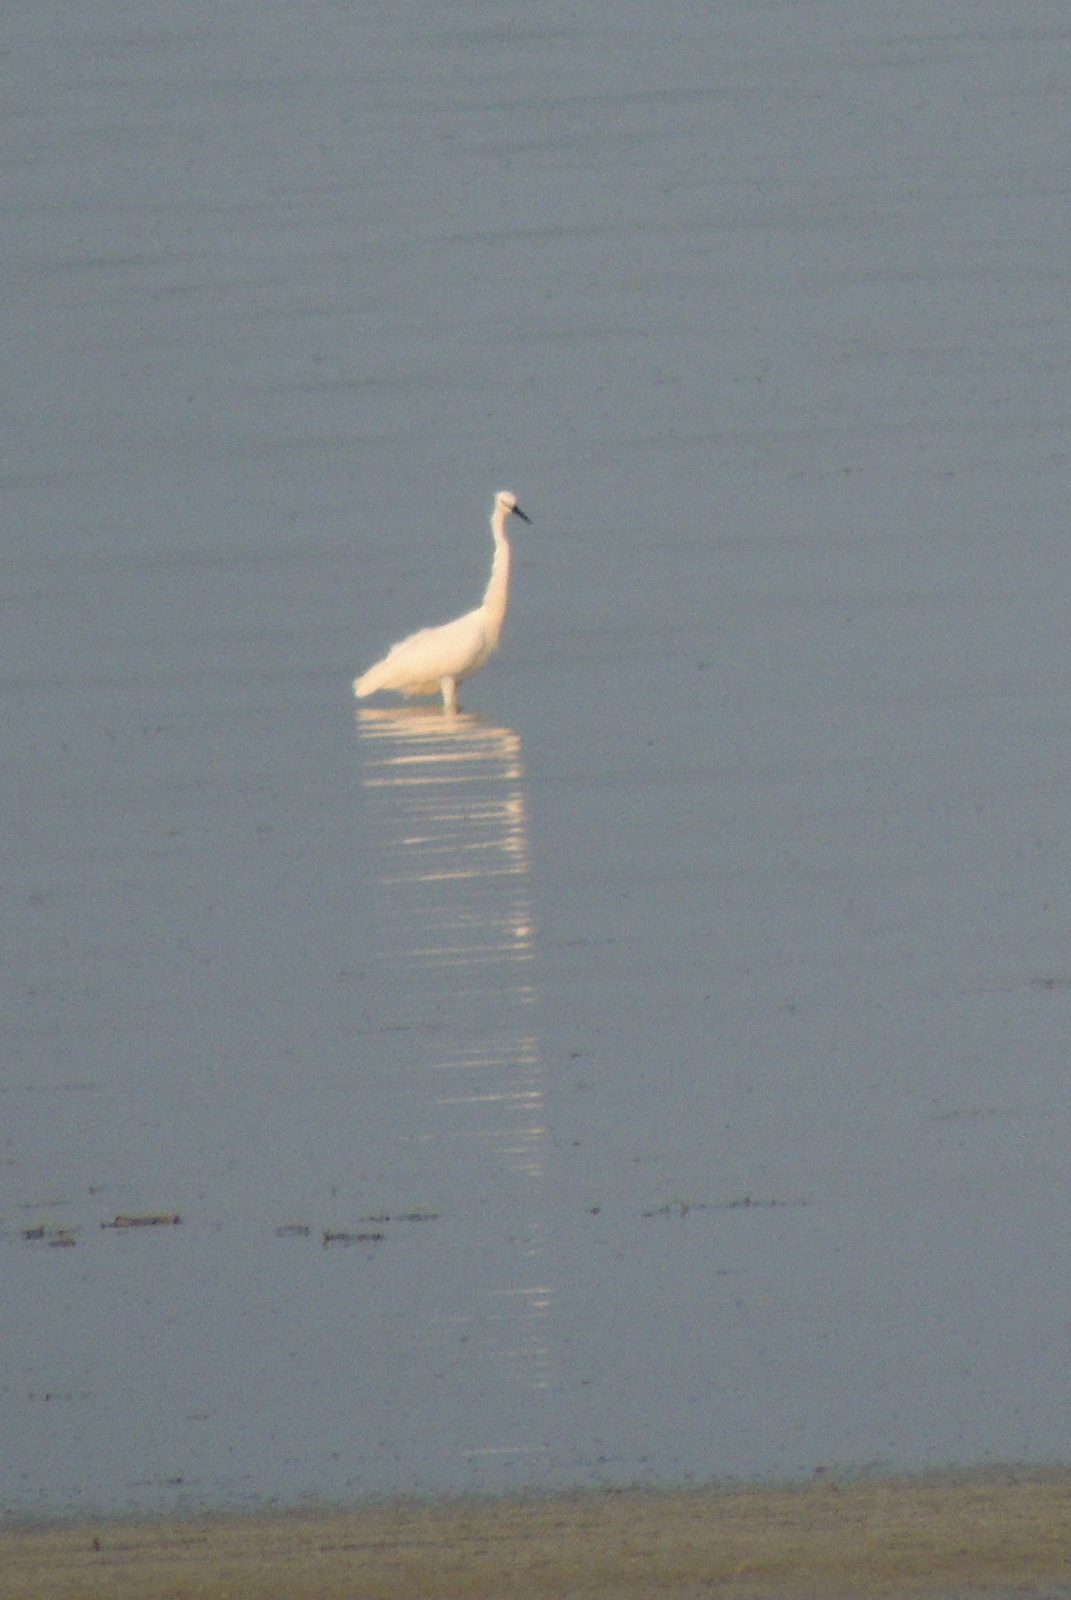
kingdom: Animalia
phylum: Chordata
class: Aves
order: Pelecaniformes
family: Ardeidae
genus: Egretta
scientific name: Egretta garzetta
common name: Little egret
